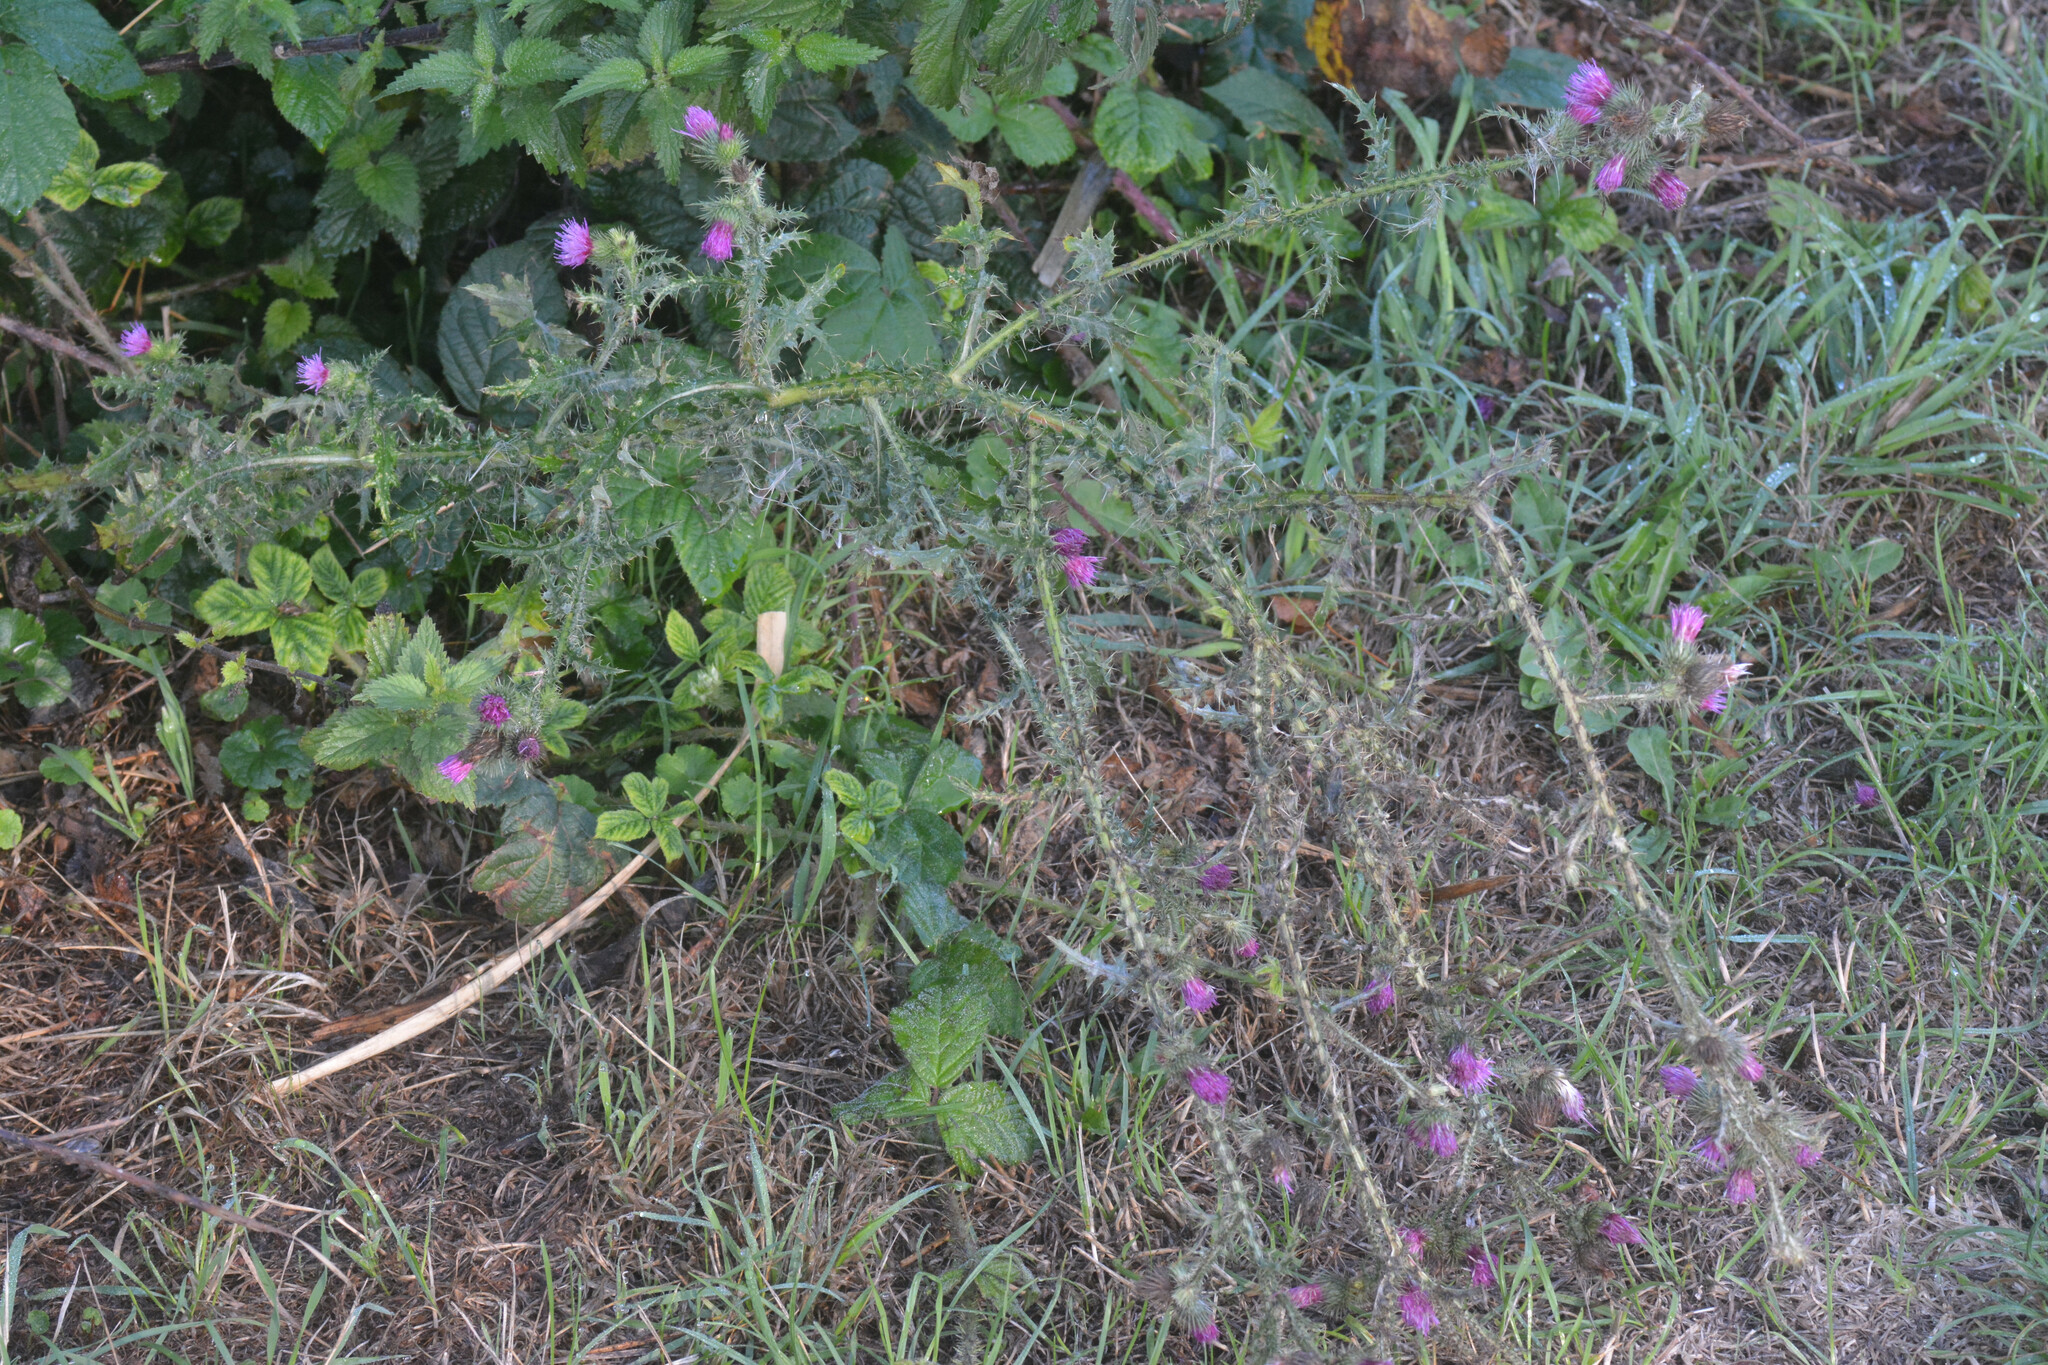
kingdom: Plantae
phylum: Tracheophyta
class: Magnoliopsida
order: Asterales
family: Asteraceae
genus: Carduus
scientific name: Carduus crispus
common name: Welted thistle
